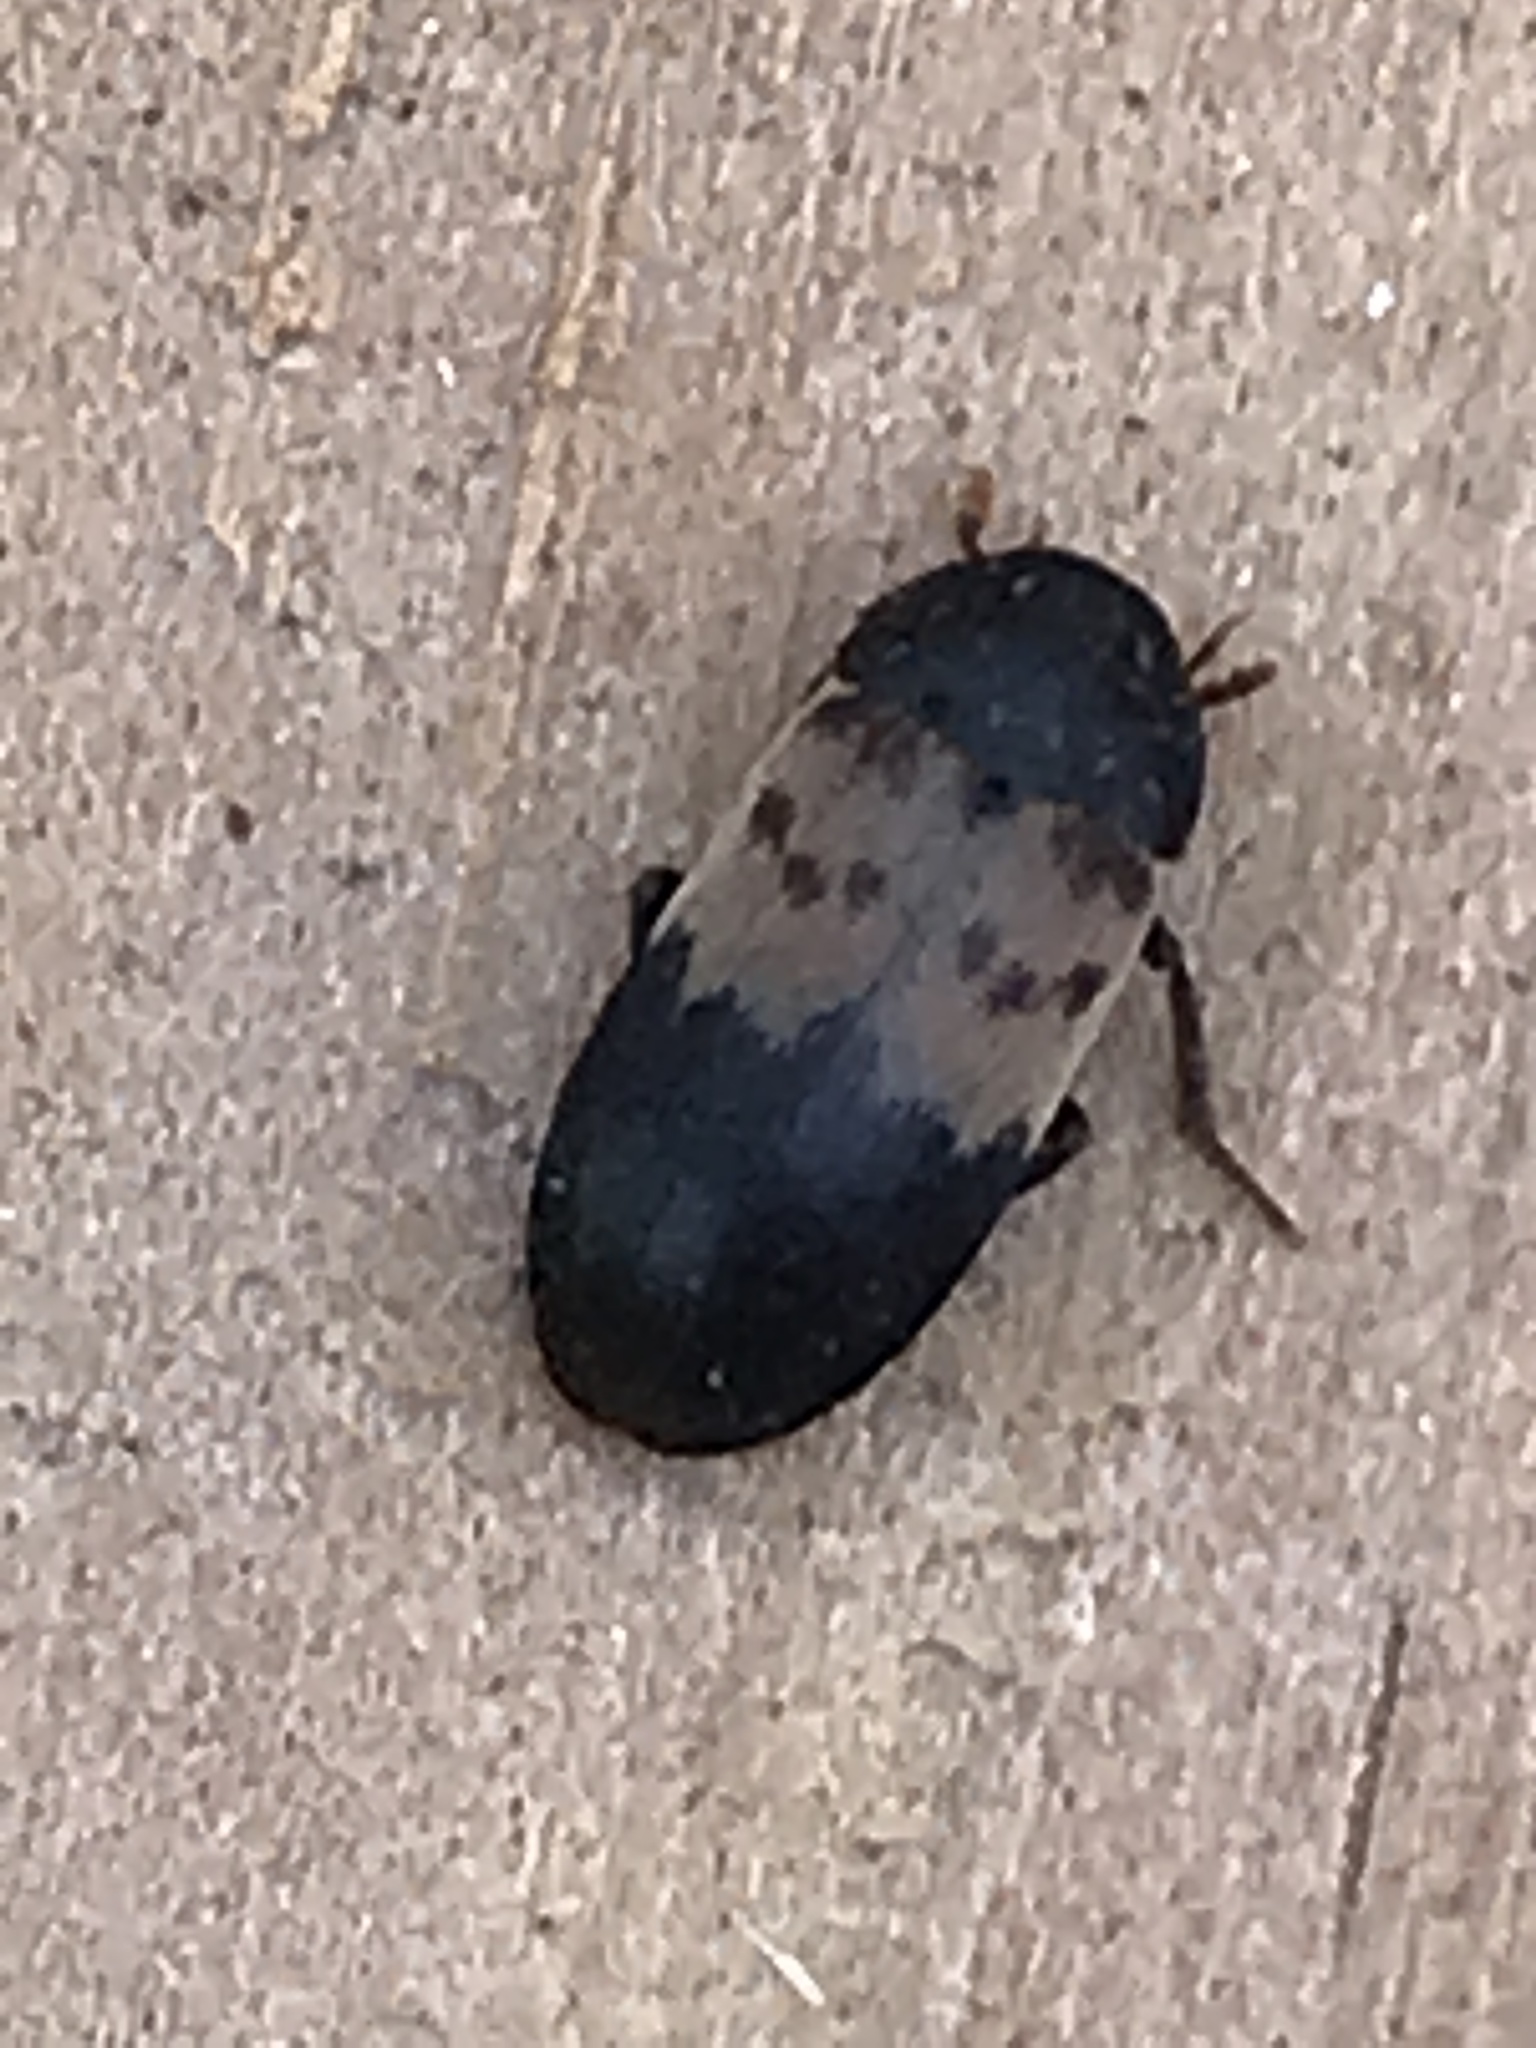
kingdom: Animalia
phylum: Arthropoda
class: Insecta
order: Coleoptera
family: Dermestidae
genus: Dermestes
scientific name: Dermestes lardarius
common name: Larder beetle
